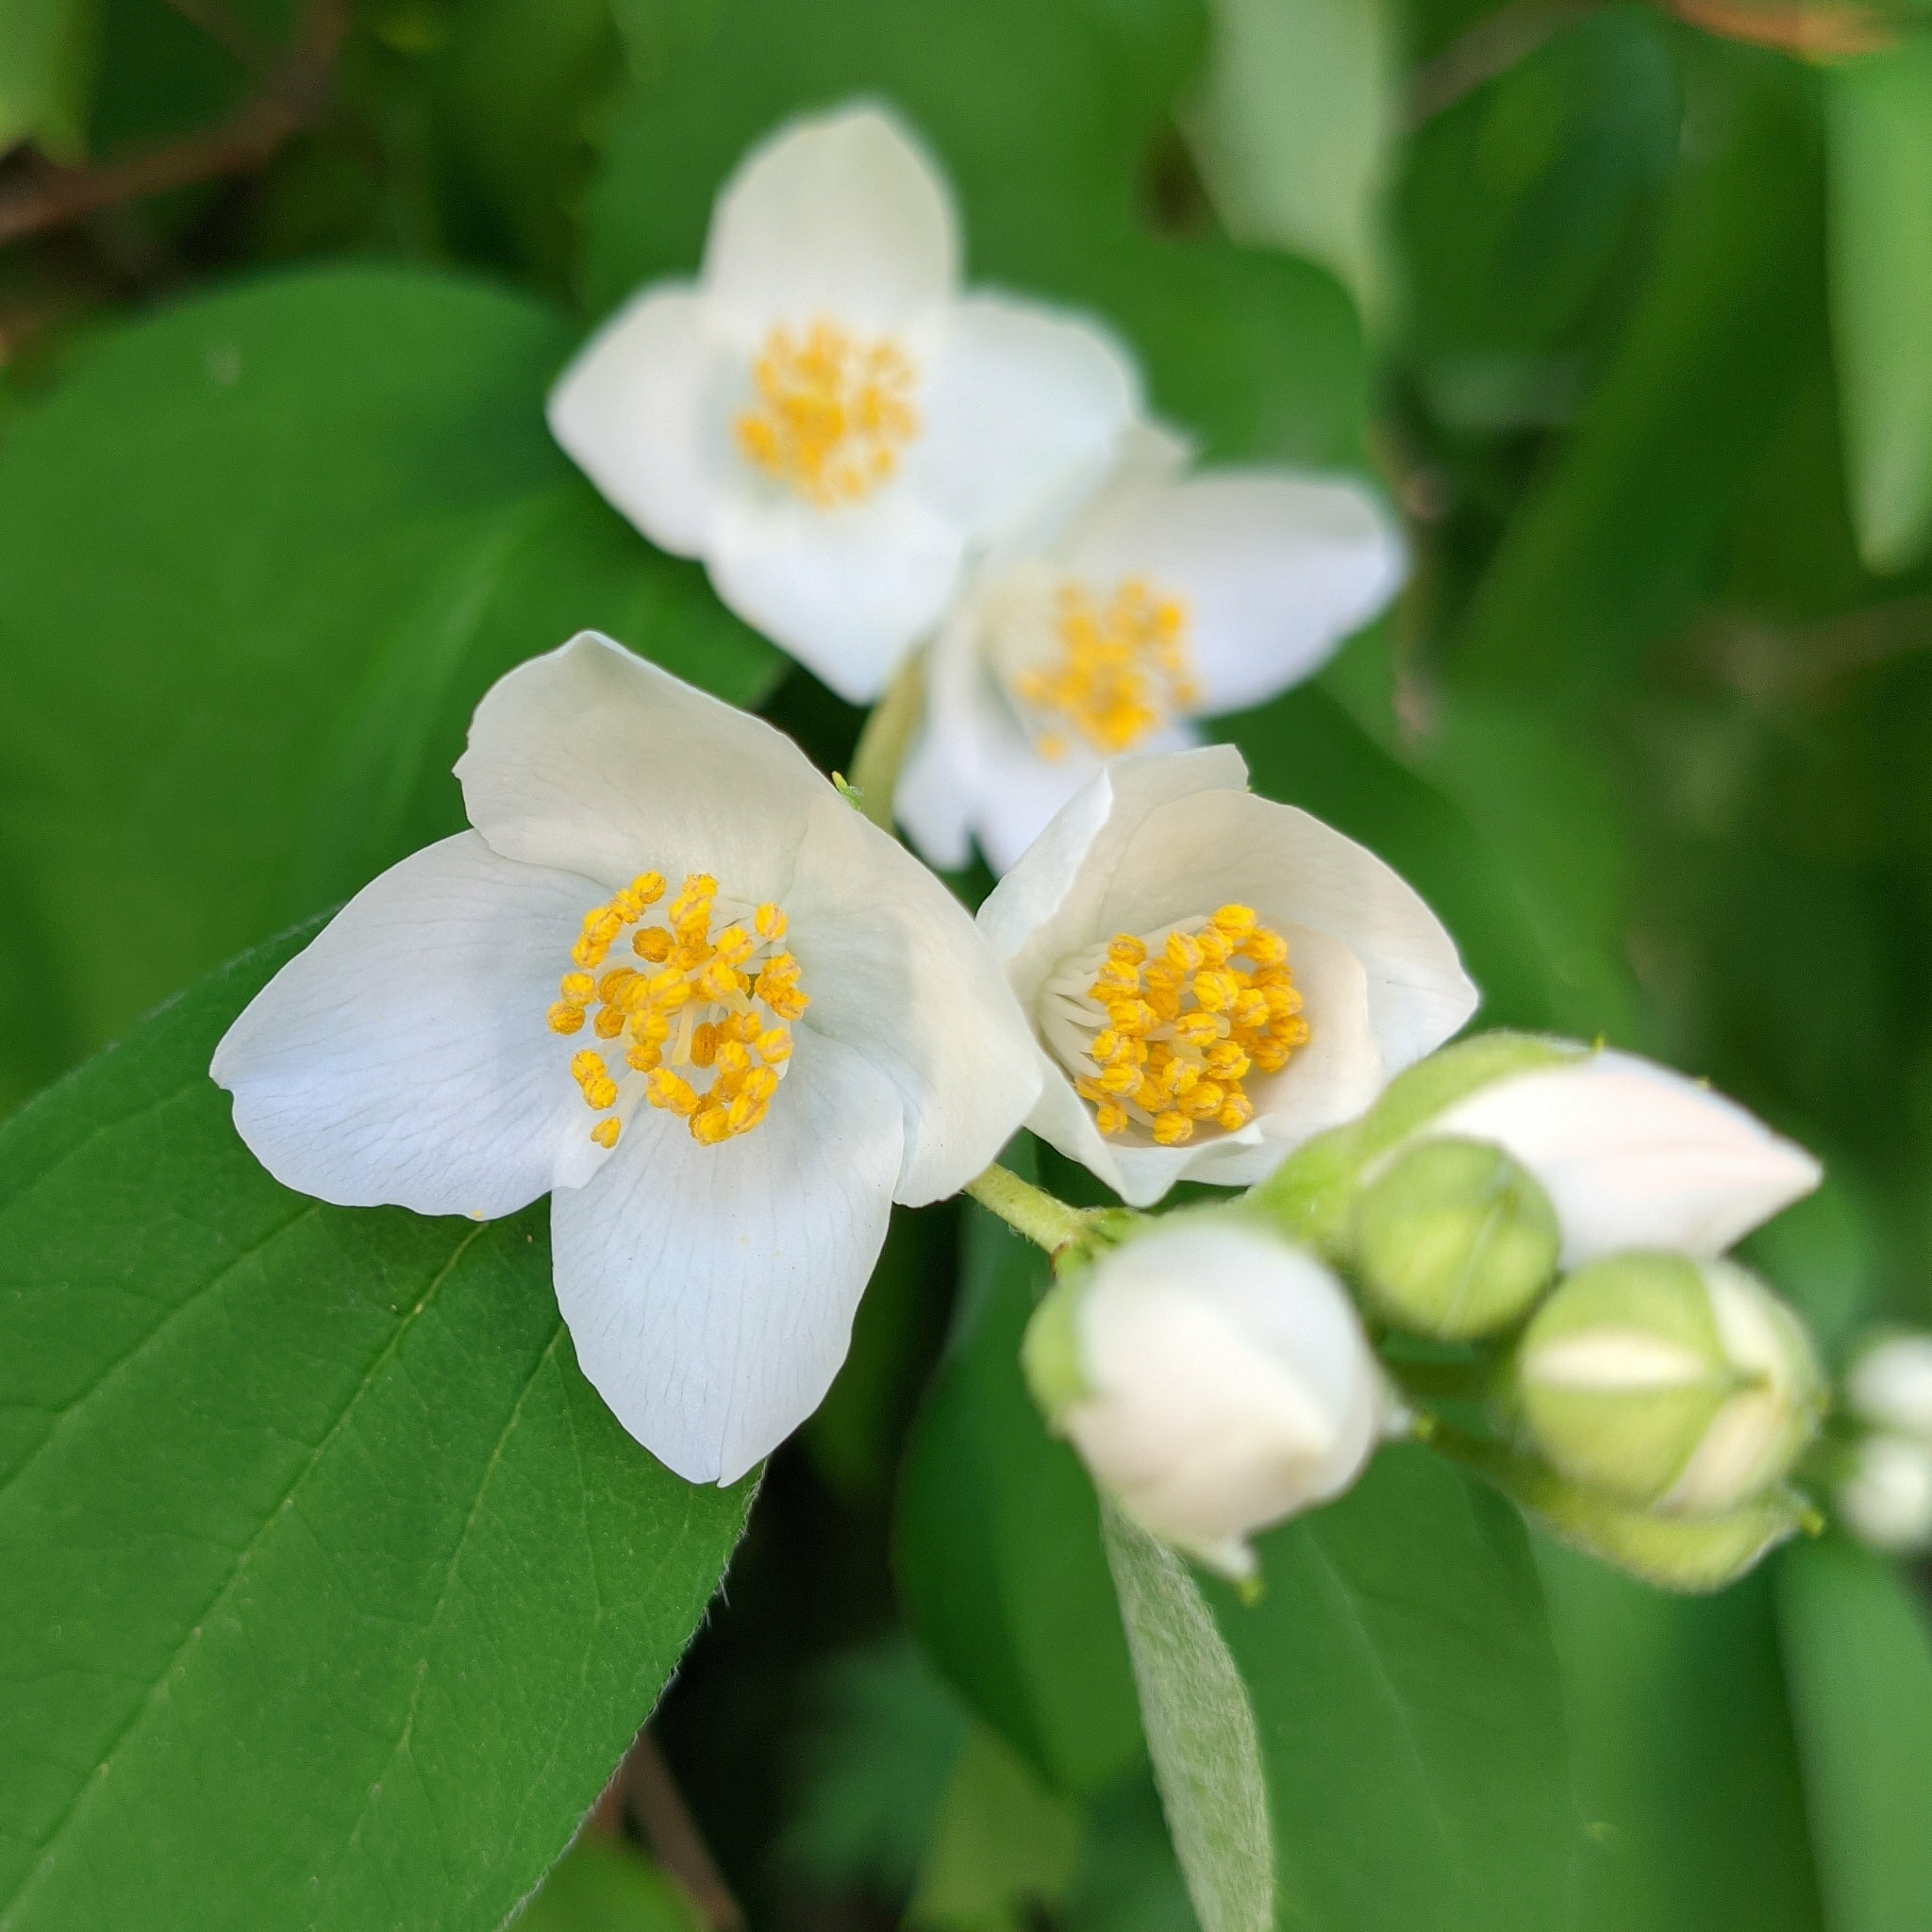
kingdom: Plantae
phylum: Tracheophyta
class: Magnoliopsida
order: Cornales
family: Hydrangeaceae
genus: Philadelphus
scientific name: Philadelphus coronarius
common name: Mock orange
